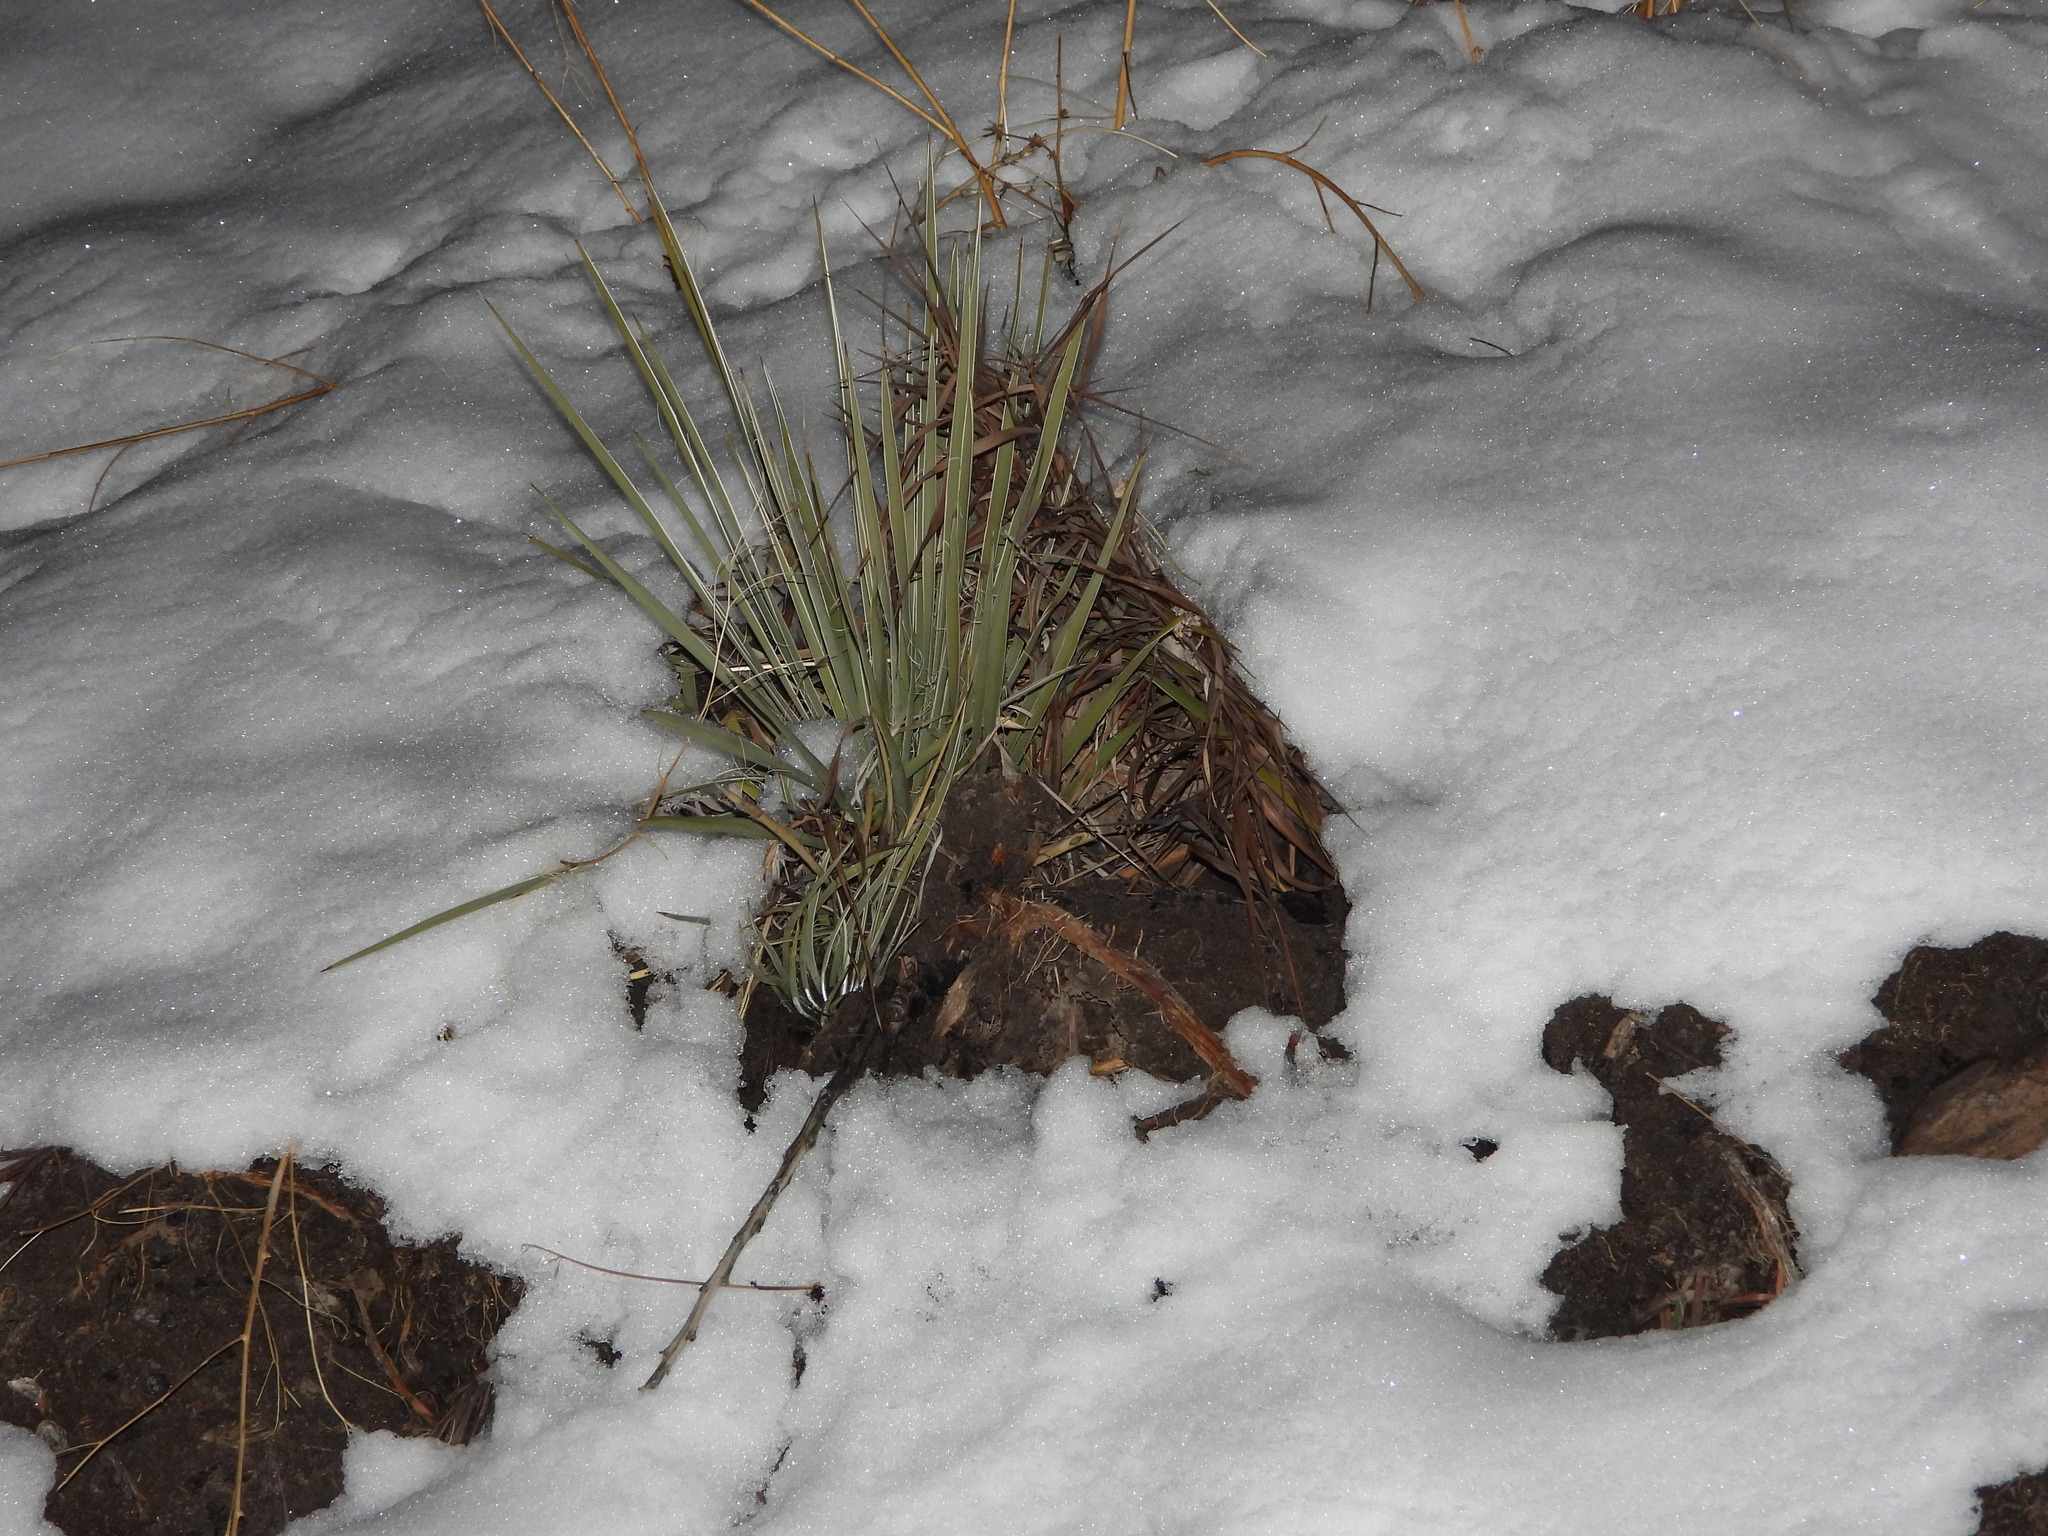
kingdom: Plantae
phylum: Tracheophyta
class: Liliopsida
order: Asparagales
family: Asparagaceae
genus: Yucca
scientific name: Yucca glauca
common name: Great plains yucca
